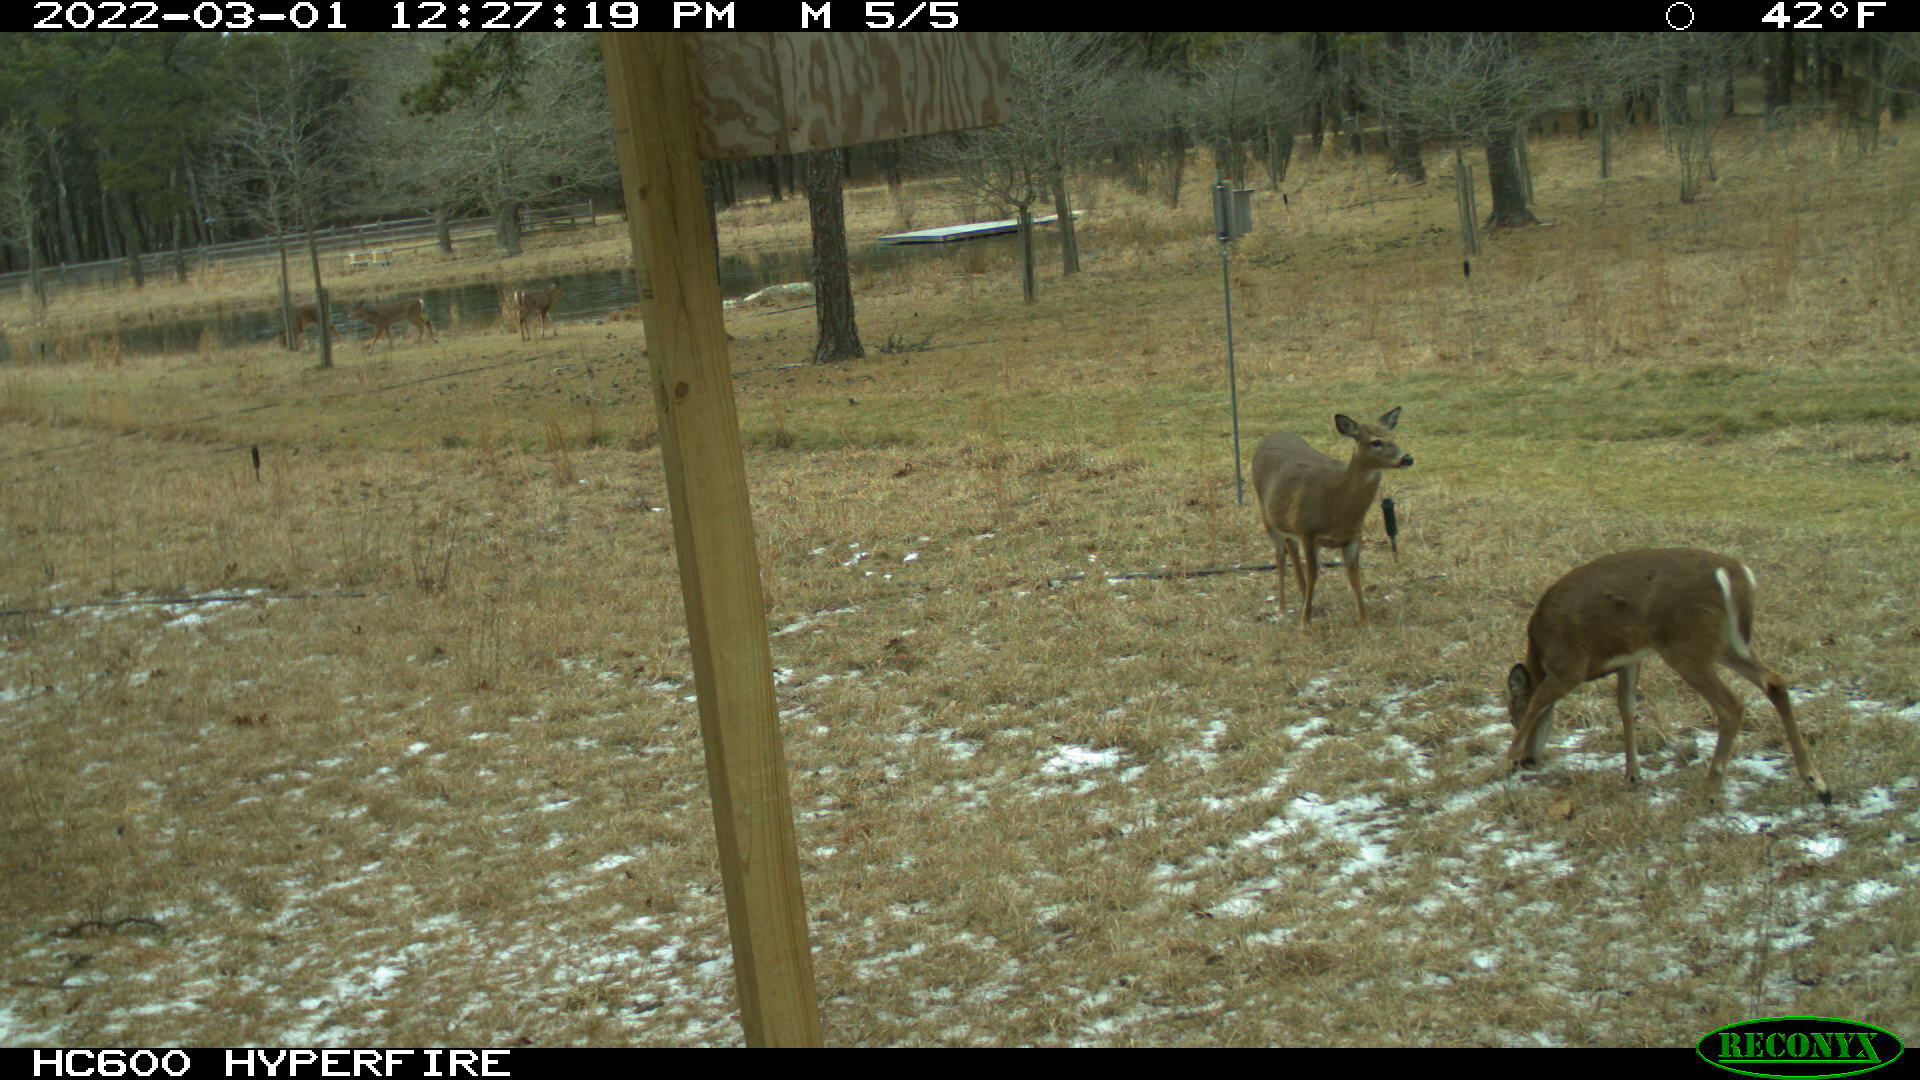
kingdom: Animalia
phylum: Chordata
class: Mammalia
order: Artiodactyla
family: Cervidae
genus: Odocoileus
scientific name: Odocoileus virginianus
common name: White-tailed deer
